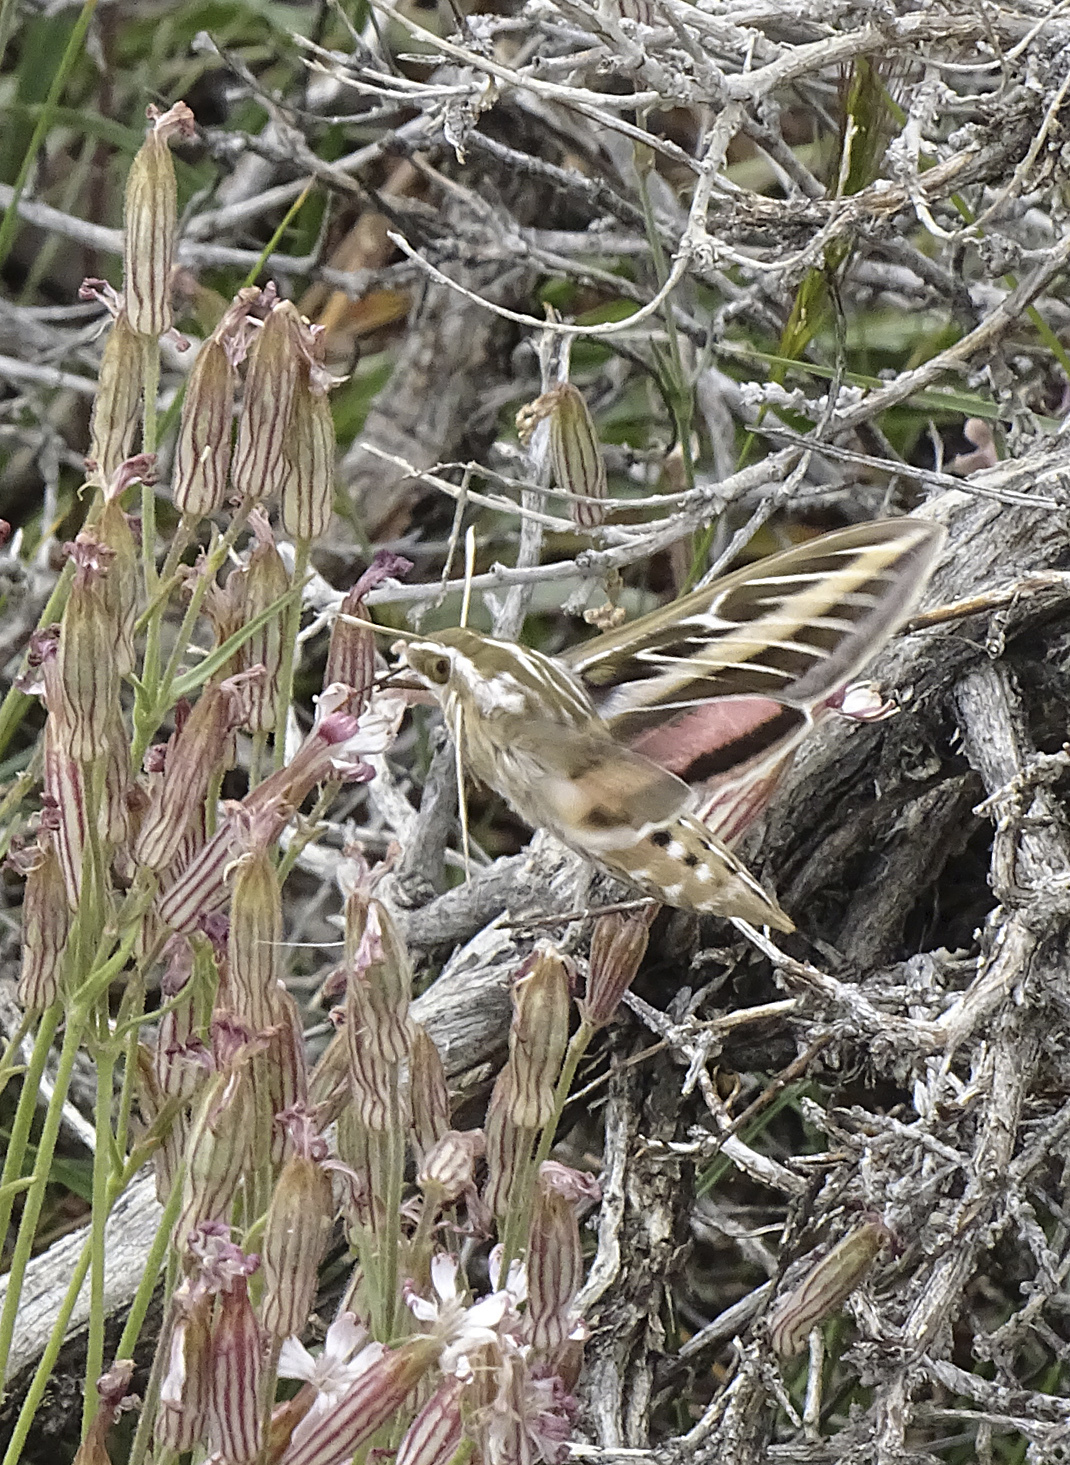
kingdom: Animalia
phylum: Arthropoda
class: Insecta
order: Lepidoptera
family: Sphingidae
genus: Hyles
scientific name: Hyles lineata
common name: White-lined sphinx
